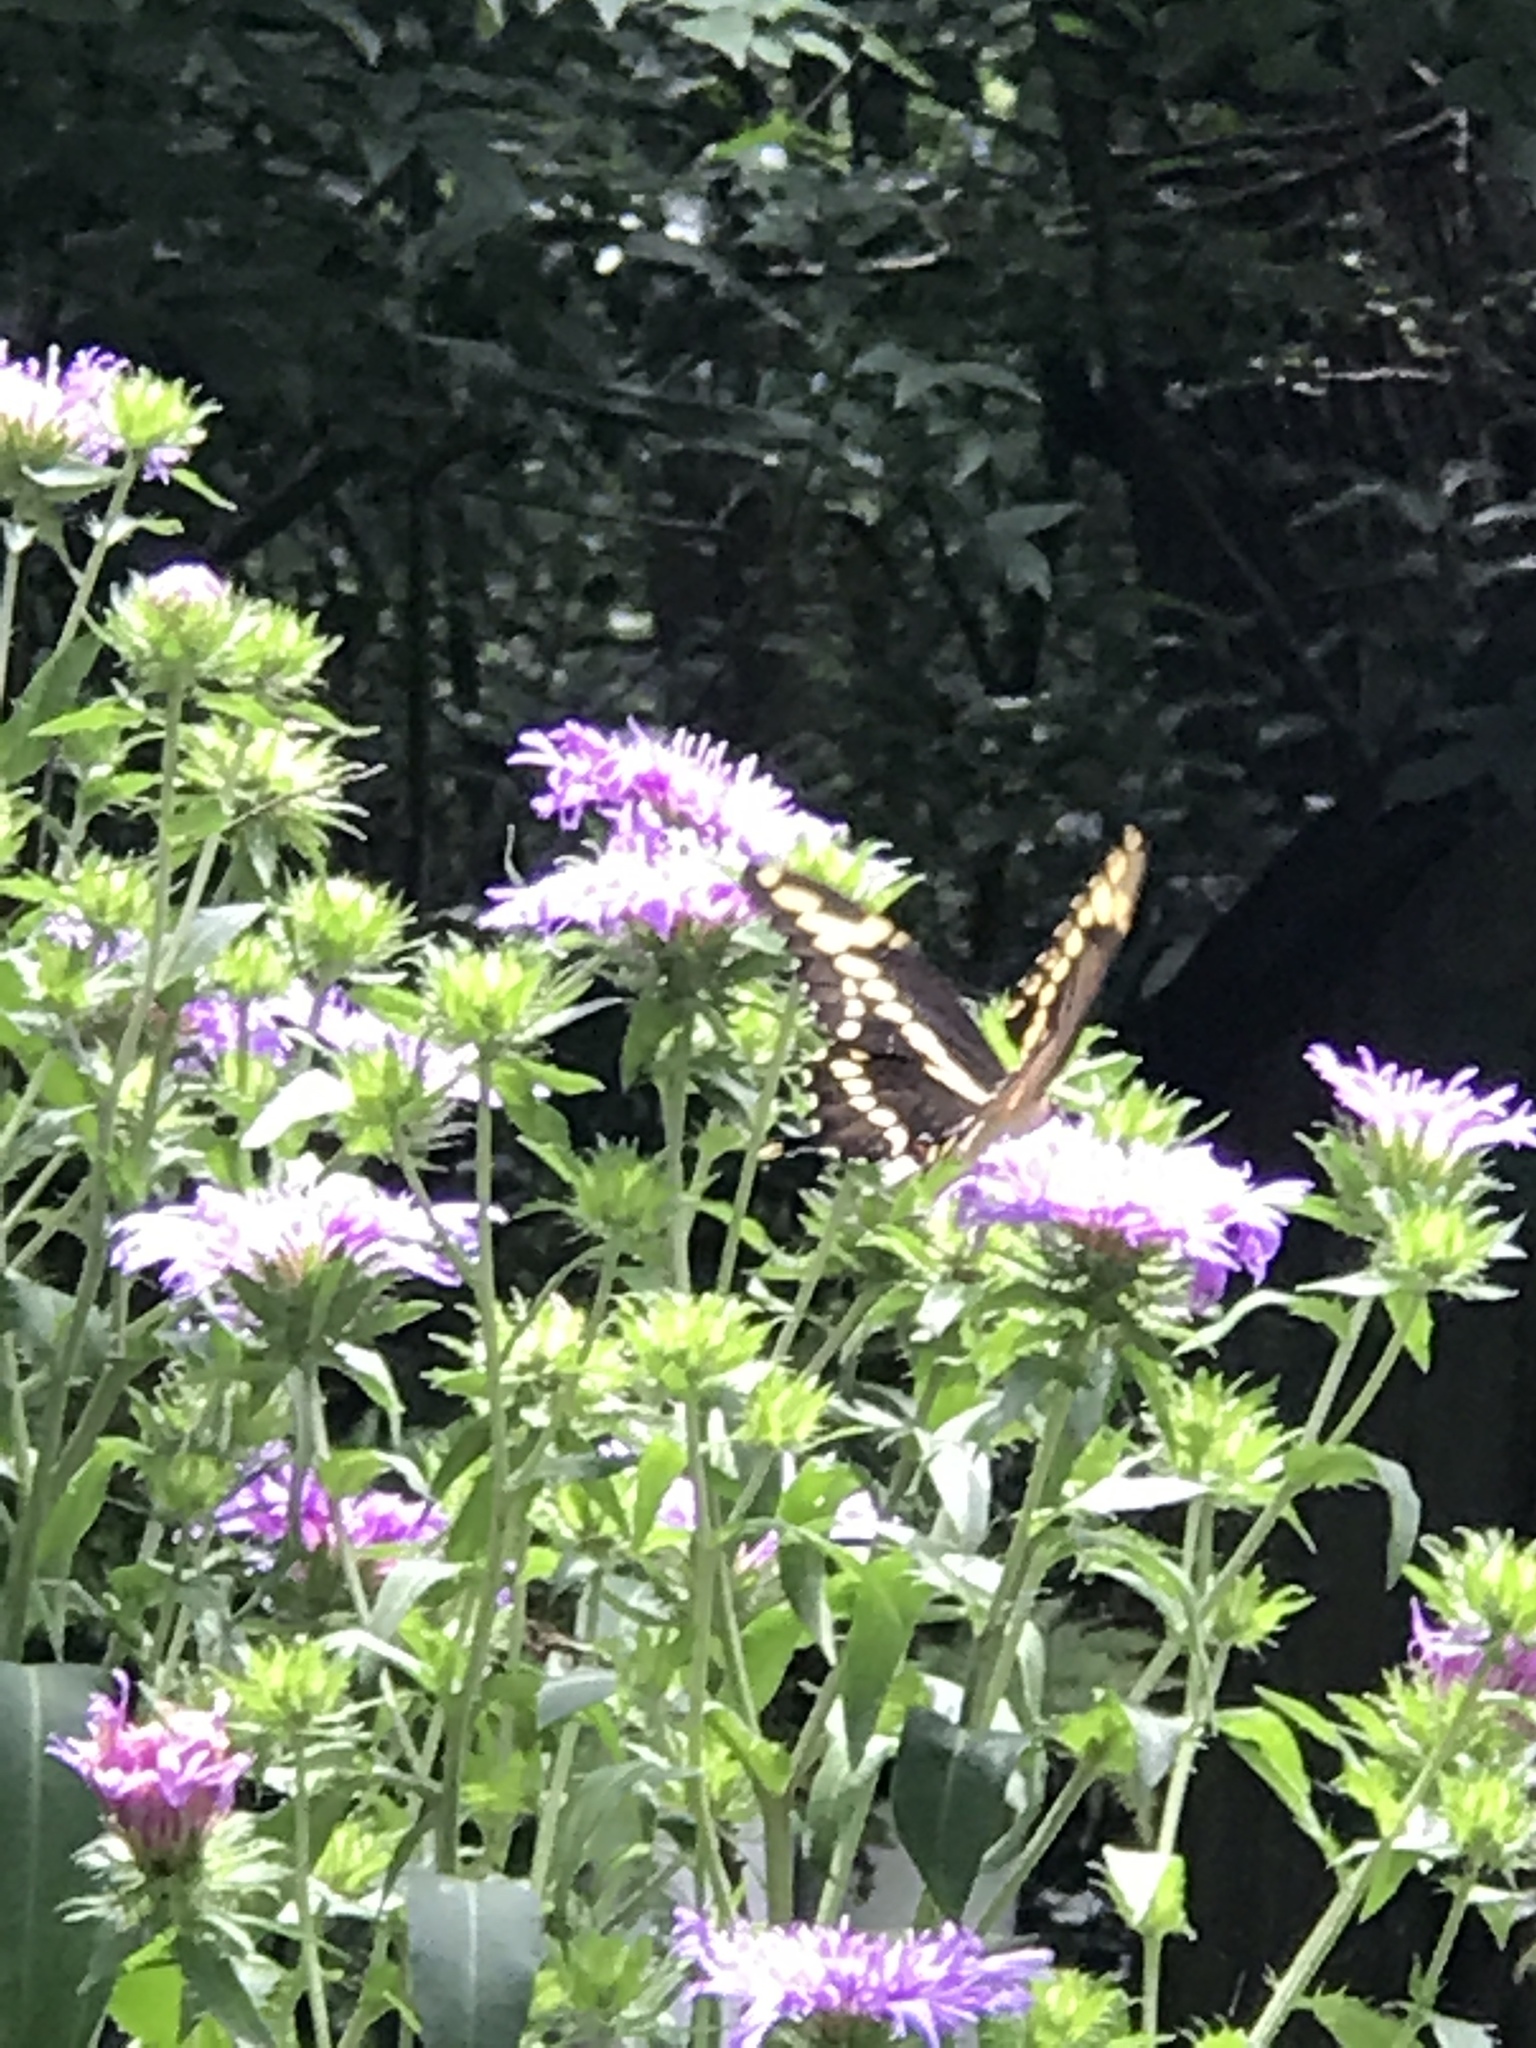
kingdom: Animalia
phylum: Arthropoda
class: Insecta
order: Lepidoptera
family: Papilionidae
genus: Papilio
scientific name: Papilio cresphontes
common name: Giant swallowtail
